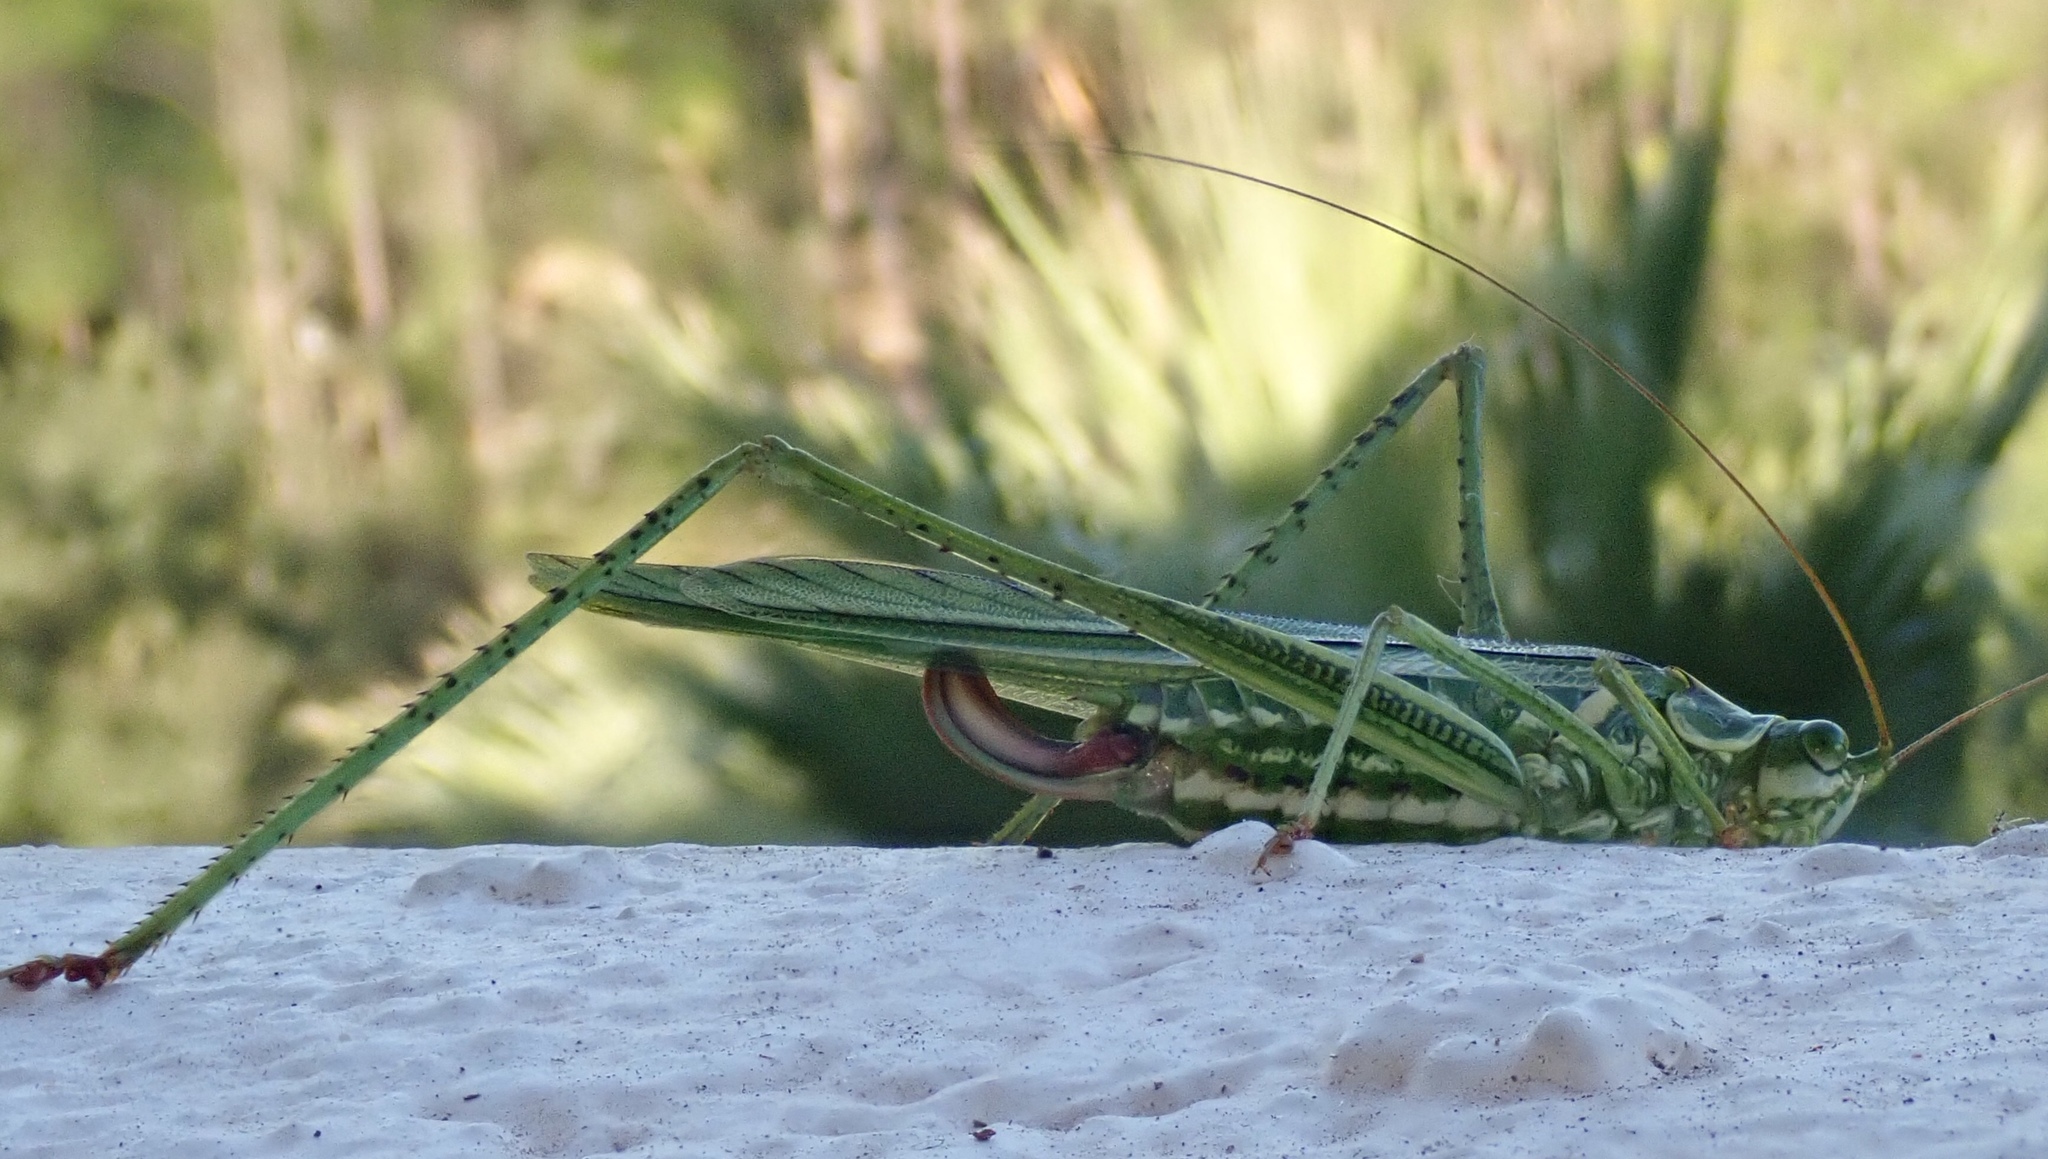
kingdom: Animalia
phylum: Arthropoda
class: Insecta
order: Orthoptera
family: Tettigoniidae
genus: Inscudderia
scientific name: Inscudderia walkeri
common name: Eastern cypress katydid
